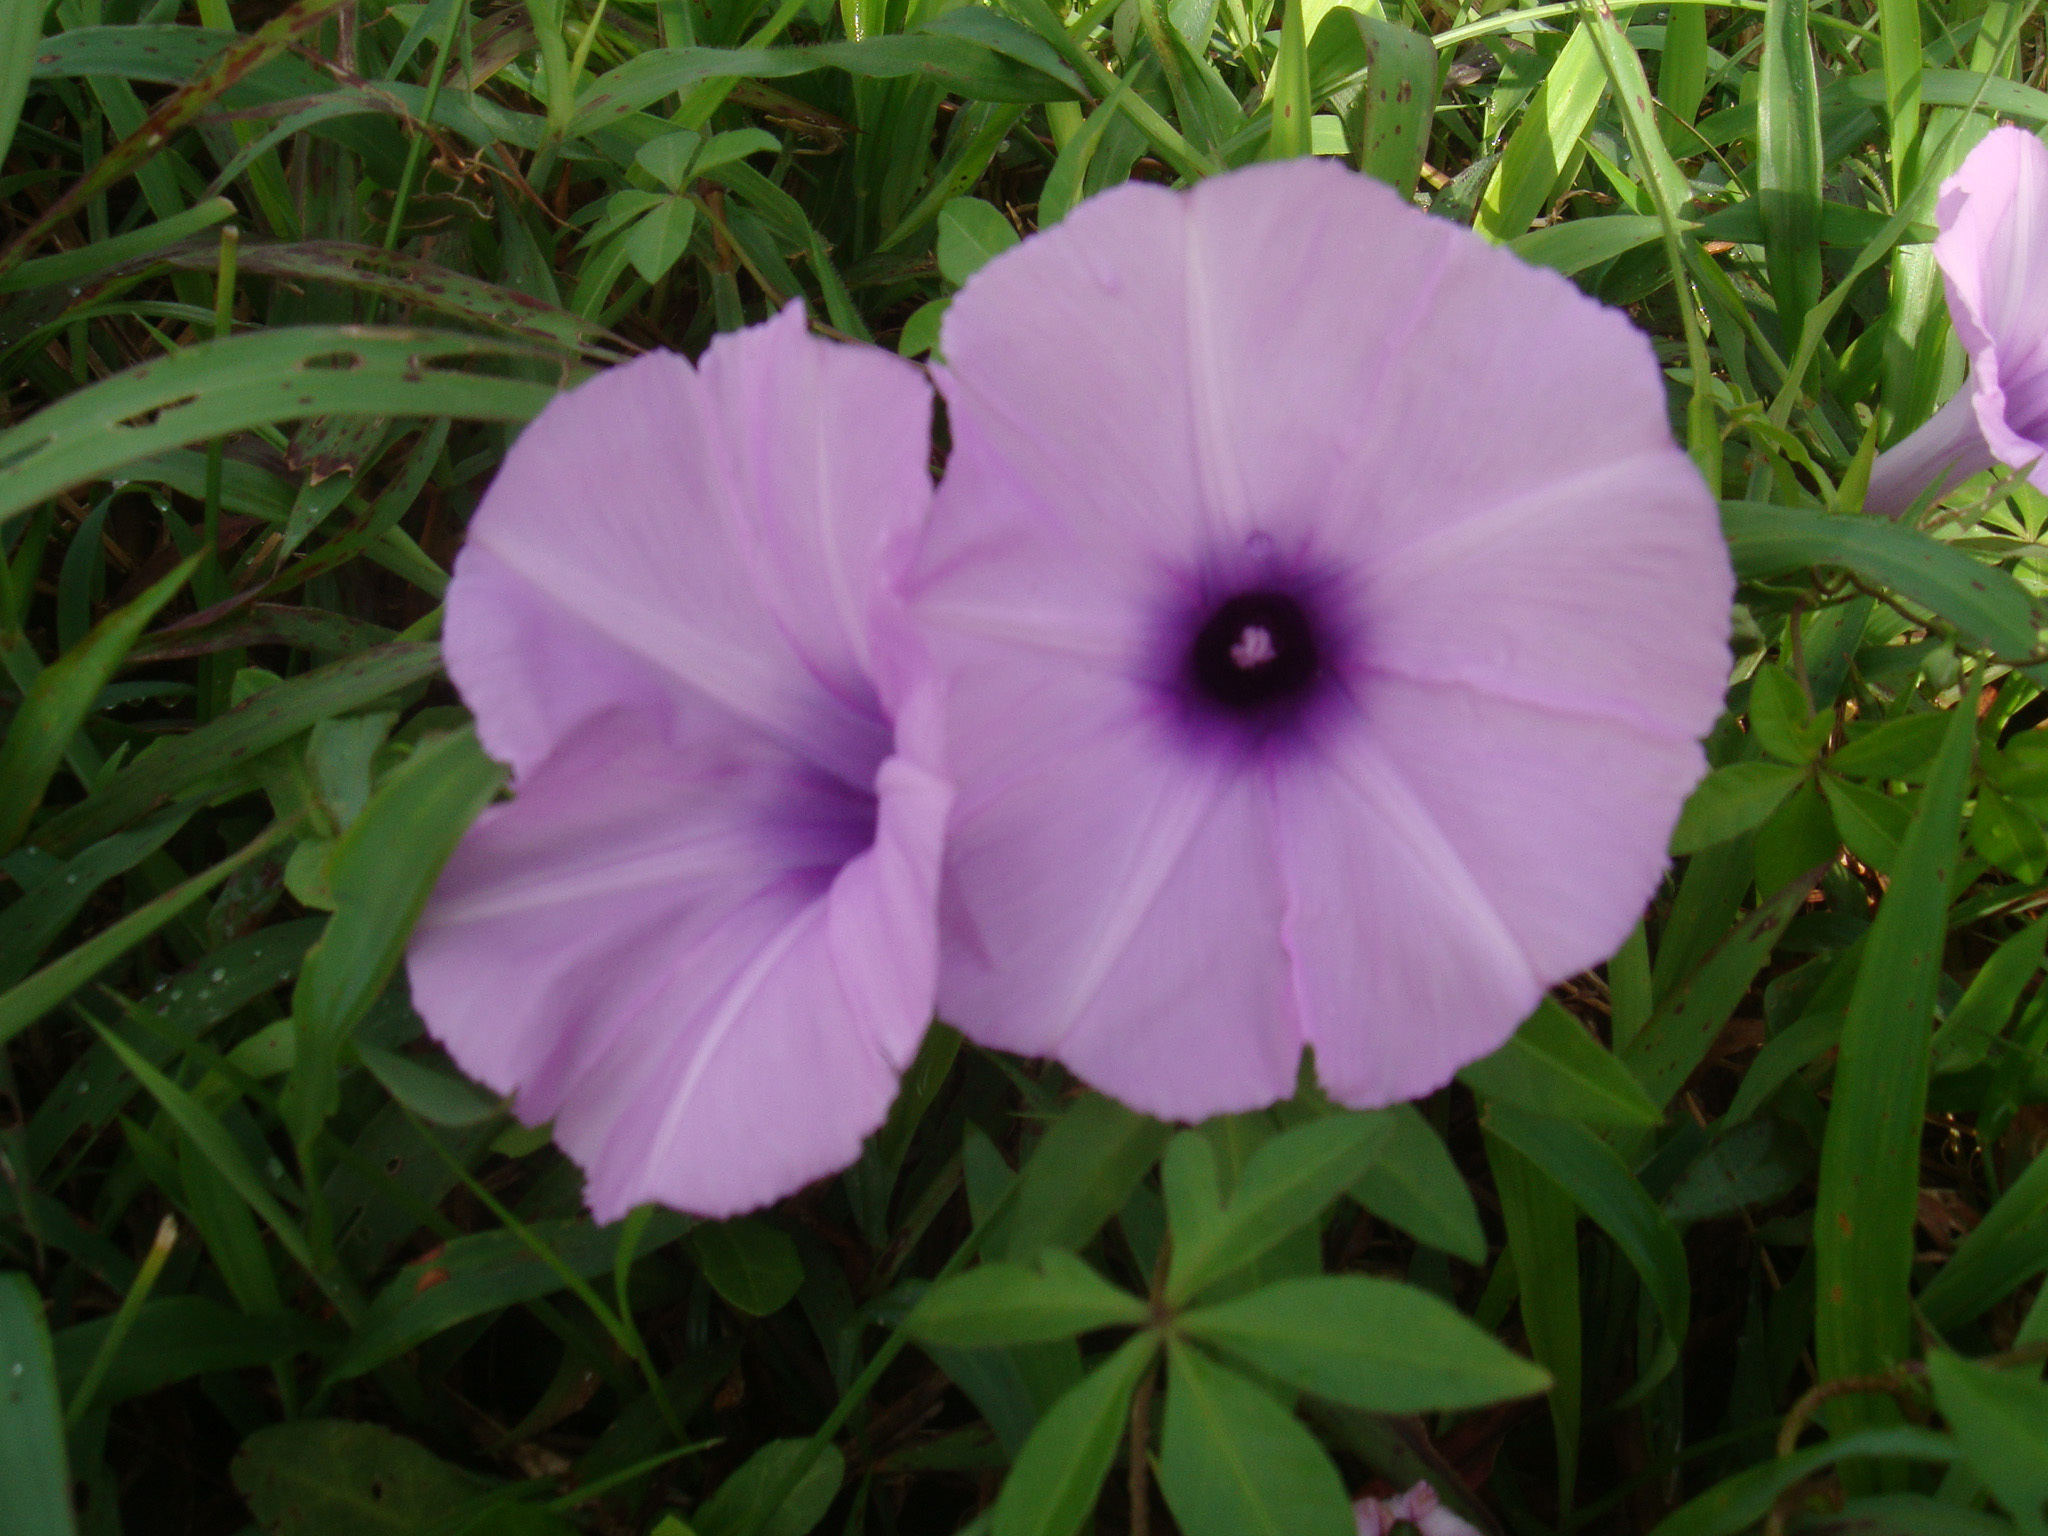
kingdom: Plantae
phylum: Tracheophyta
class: Magnoliopsida
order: Solanales
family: Convolvulaceae
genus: Ipomoea
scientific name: Ipomoea cairica
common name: Mile a minute vine
